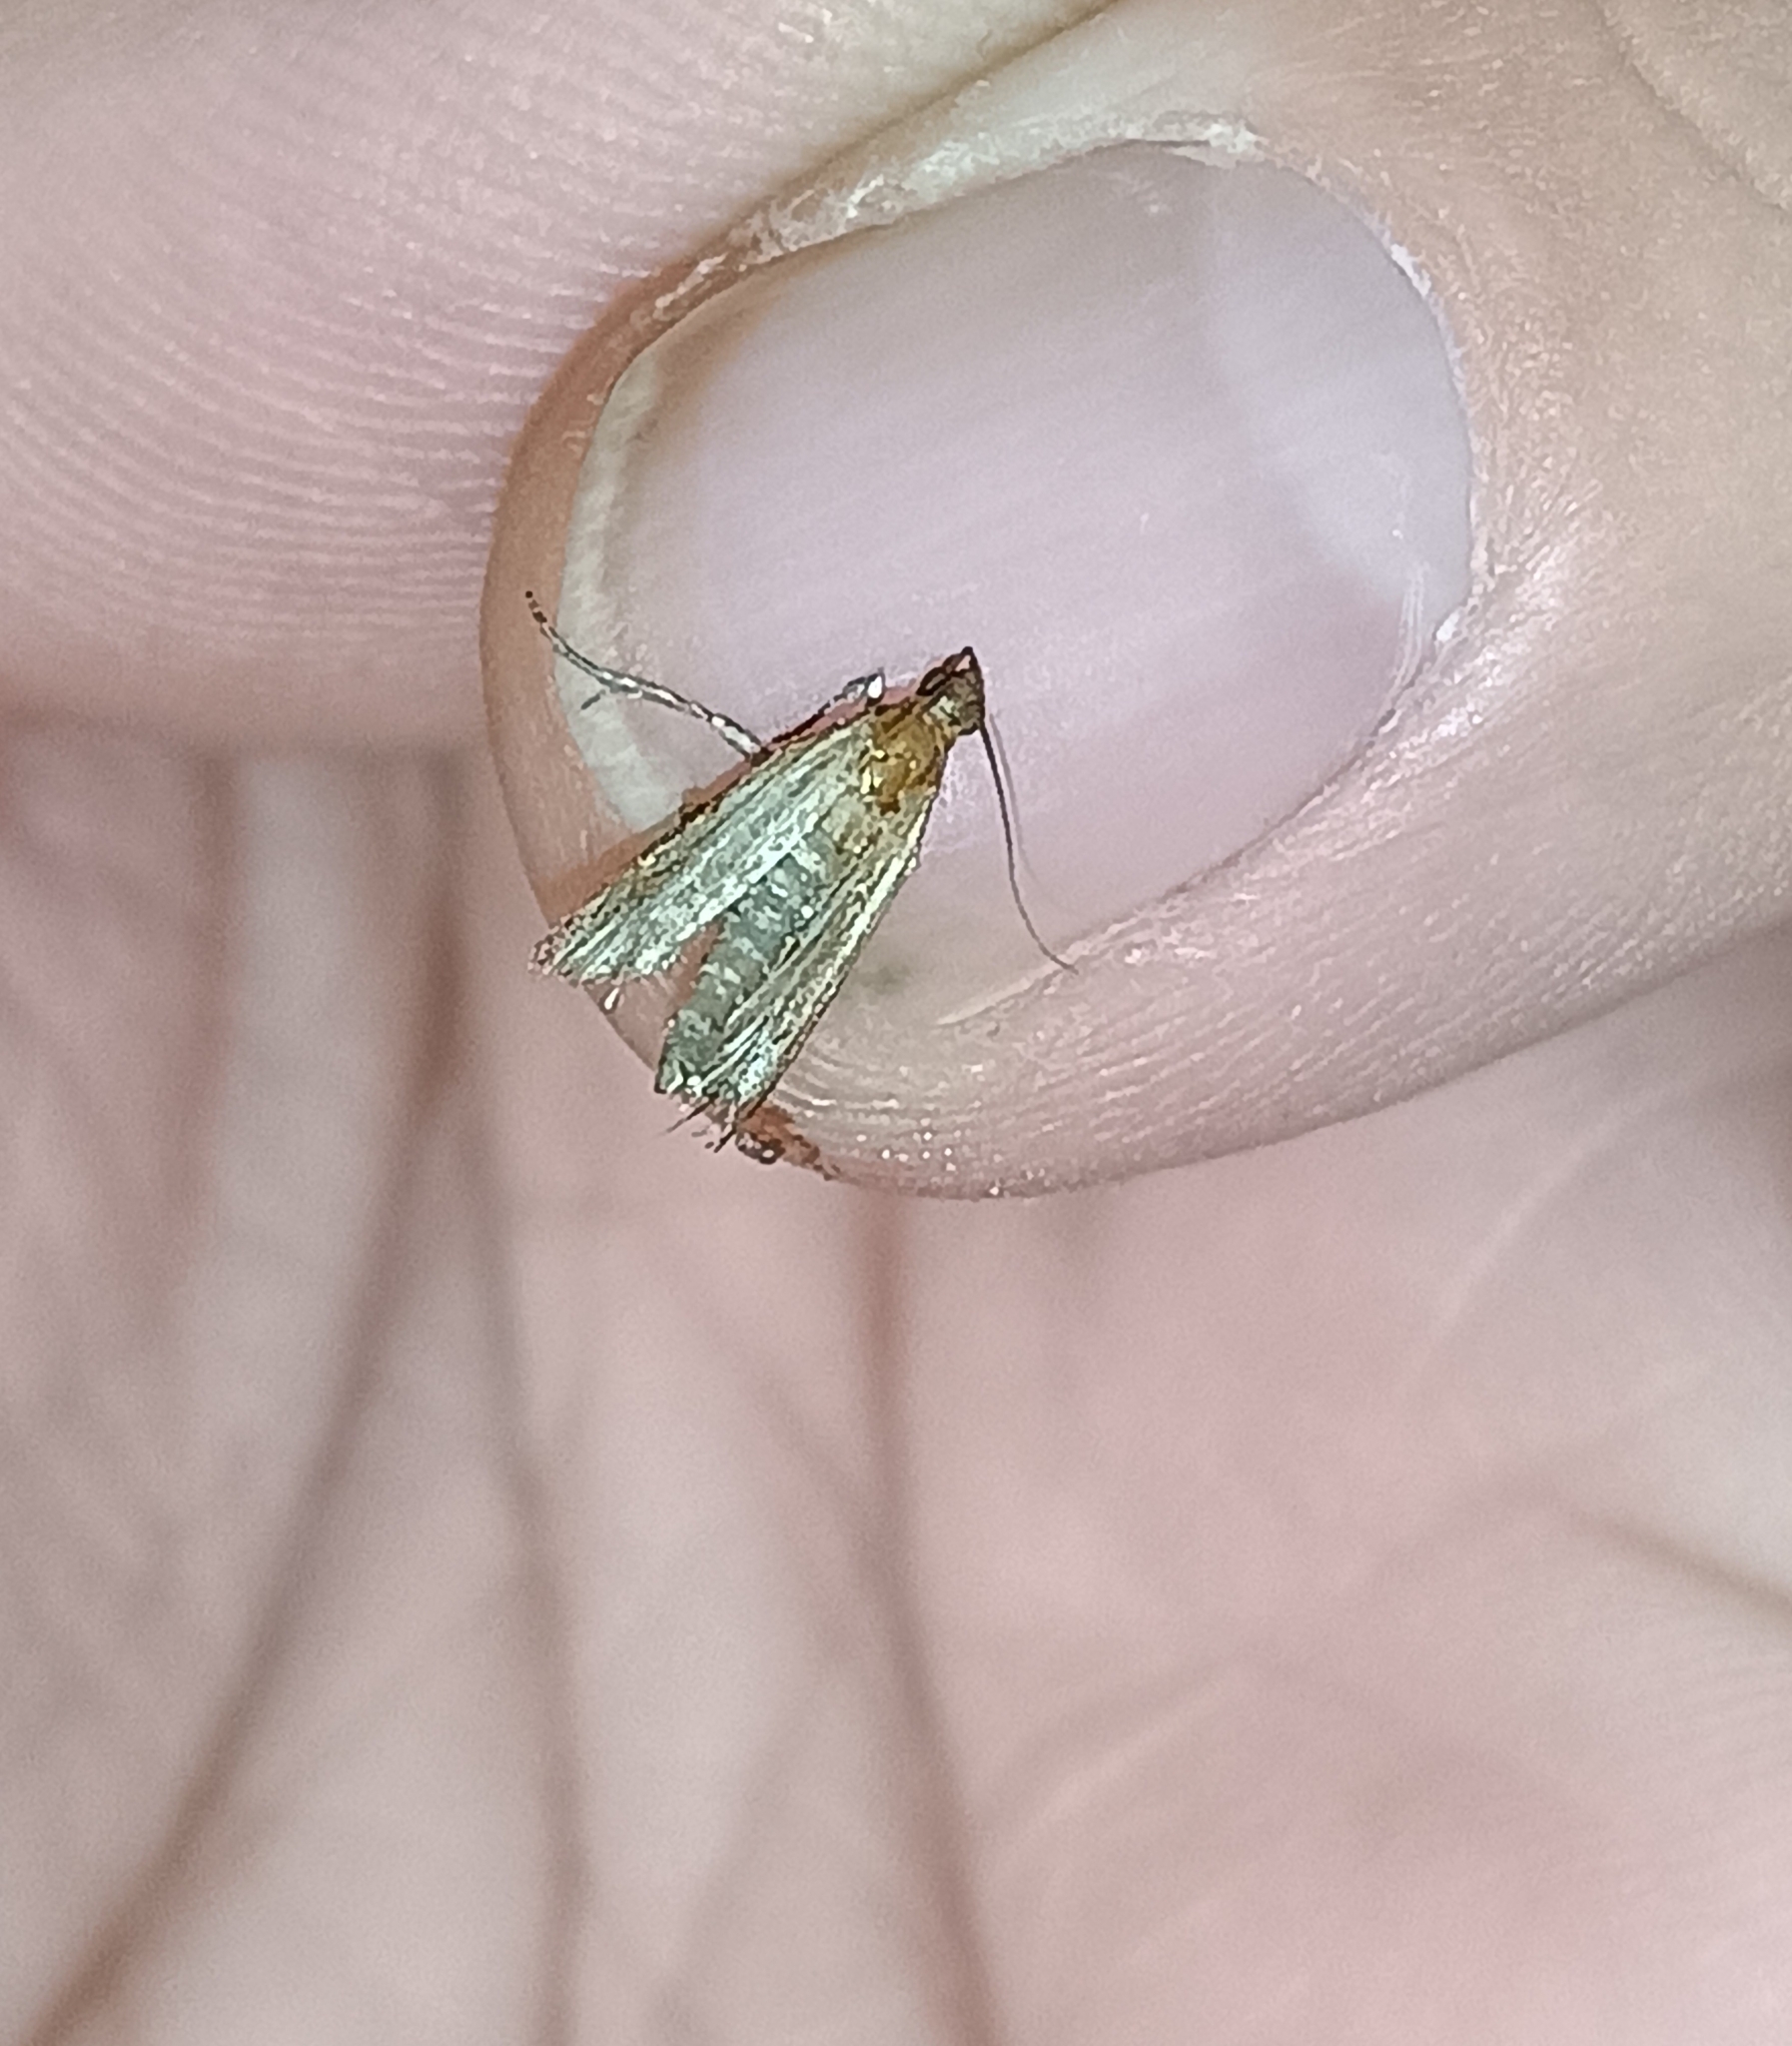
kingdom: Animalia
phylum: Arthropoda
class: Insecta
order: Lepidoptera
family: Tineidae
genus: Tineola
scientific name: Tineola bisselliella
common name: Webbing clothes moth
